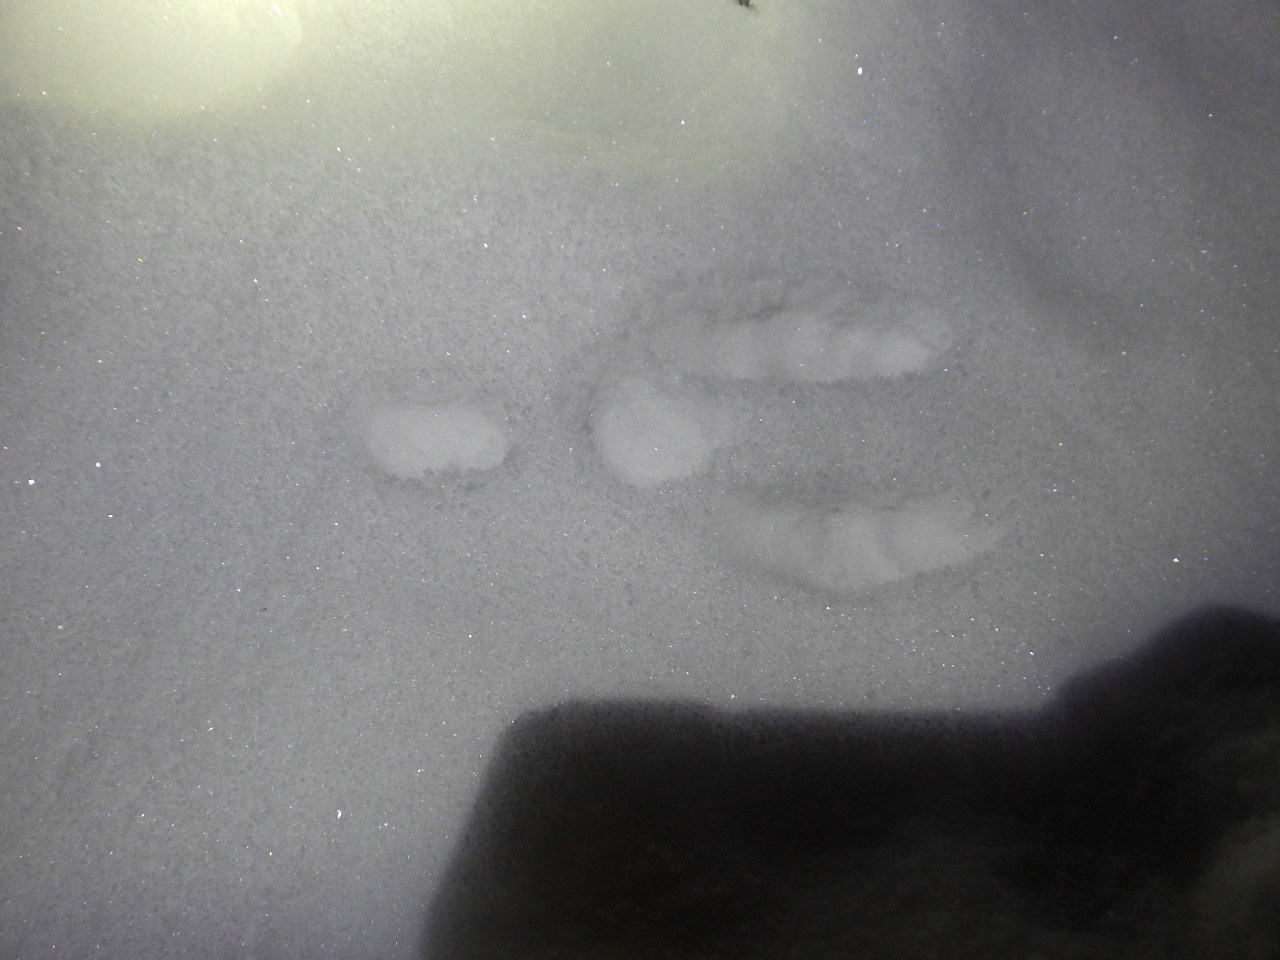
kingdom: Animalia
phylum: Chordata
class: Mammalia
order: Lagomorpha
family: Leporidae
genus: Sylvilagus
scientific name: Sylvilagus floridanus
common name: Eastern cottontail
